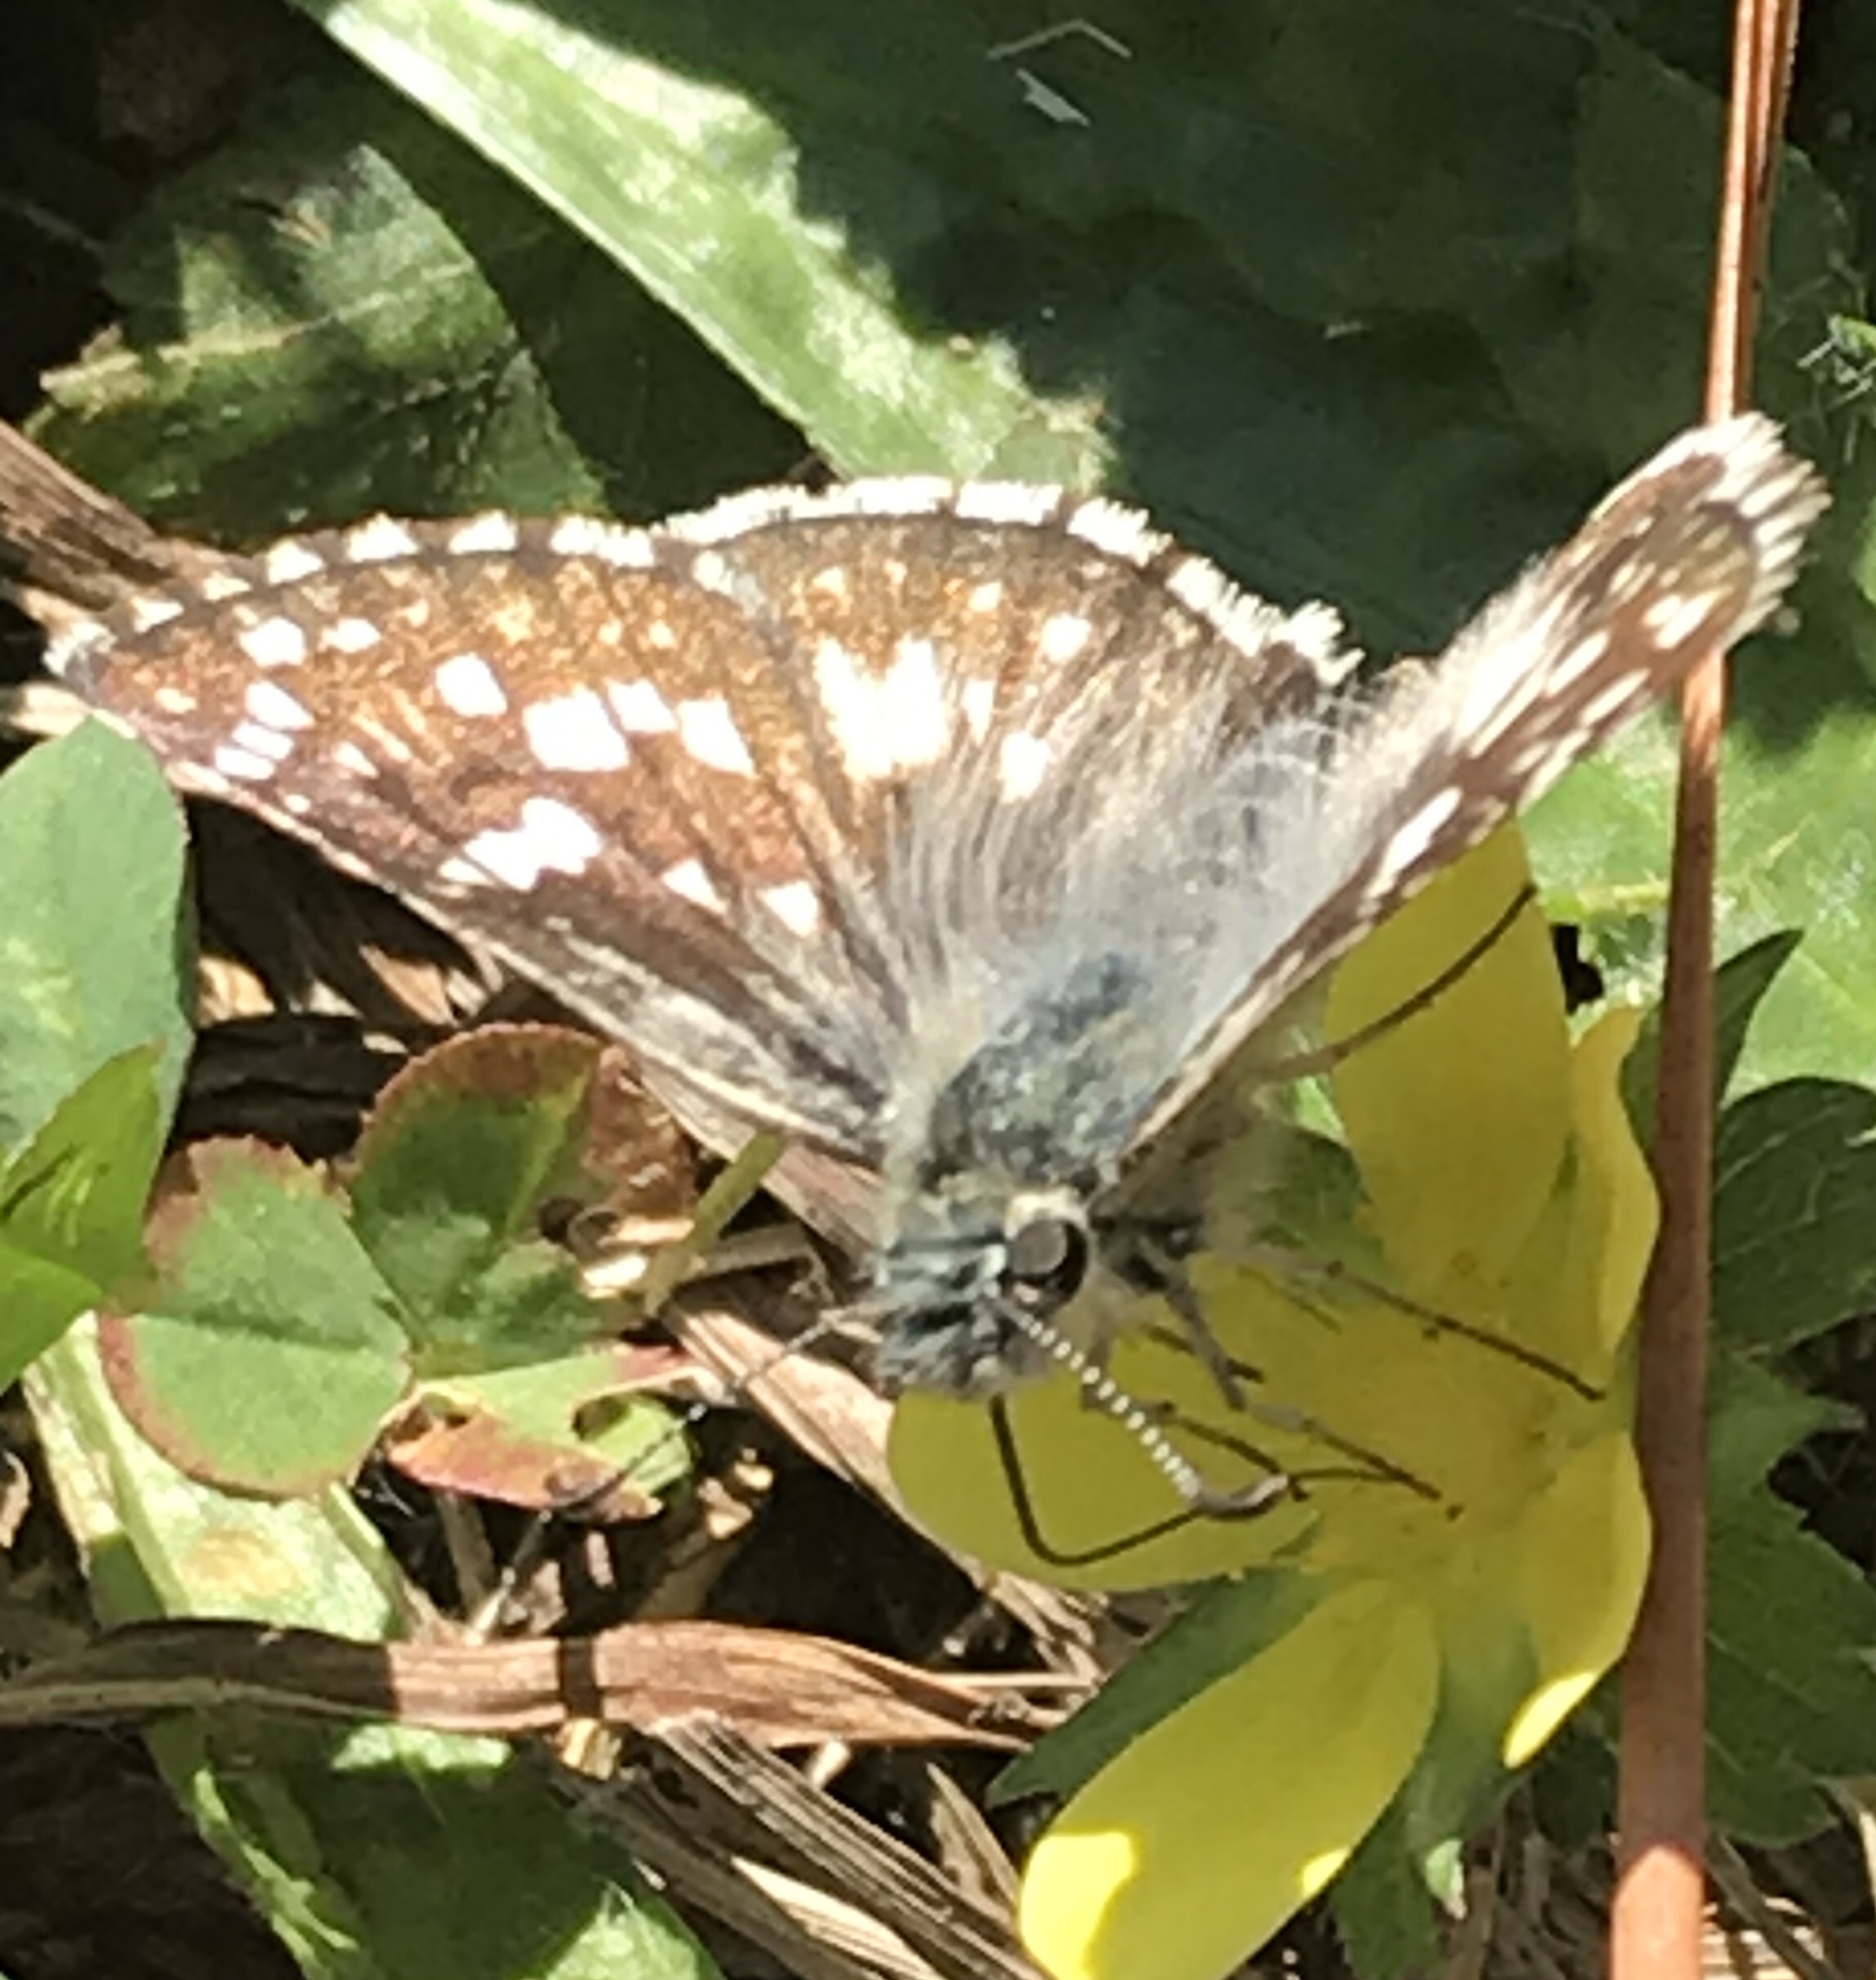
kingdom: Animalia
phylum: Arthropoda
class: Insecta
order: Lepidoptera
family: Hesperiidae
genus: Burnsius
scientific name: Burnsius communis
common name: Common checkered-skipper
